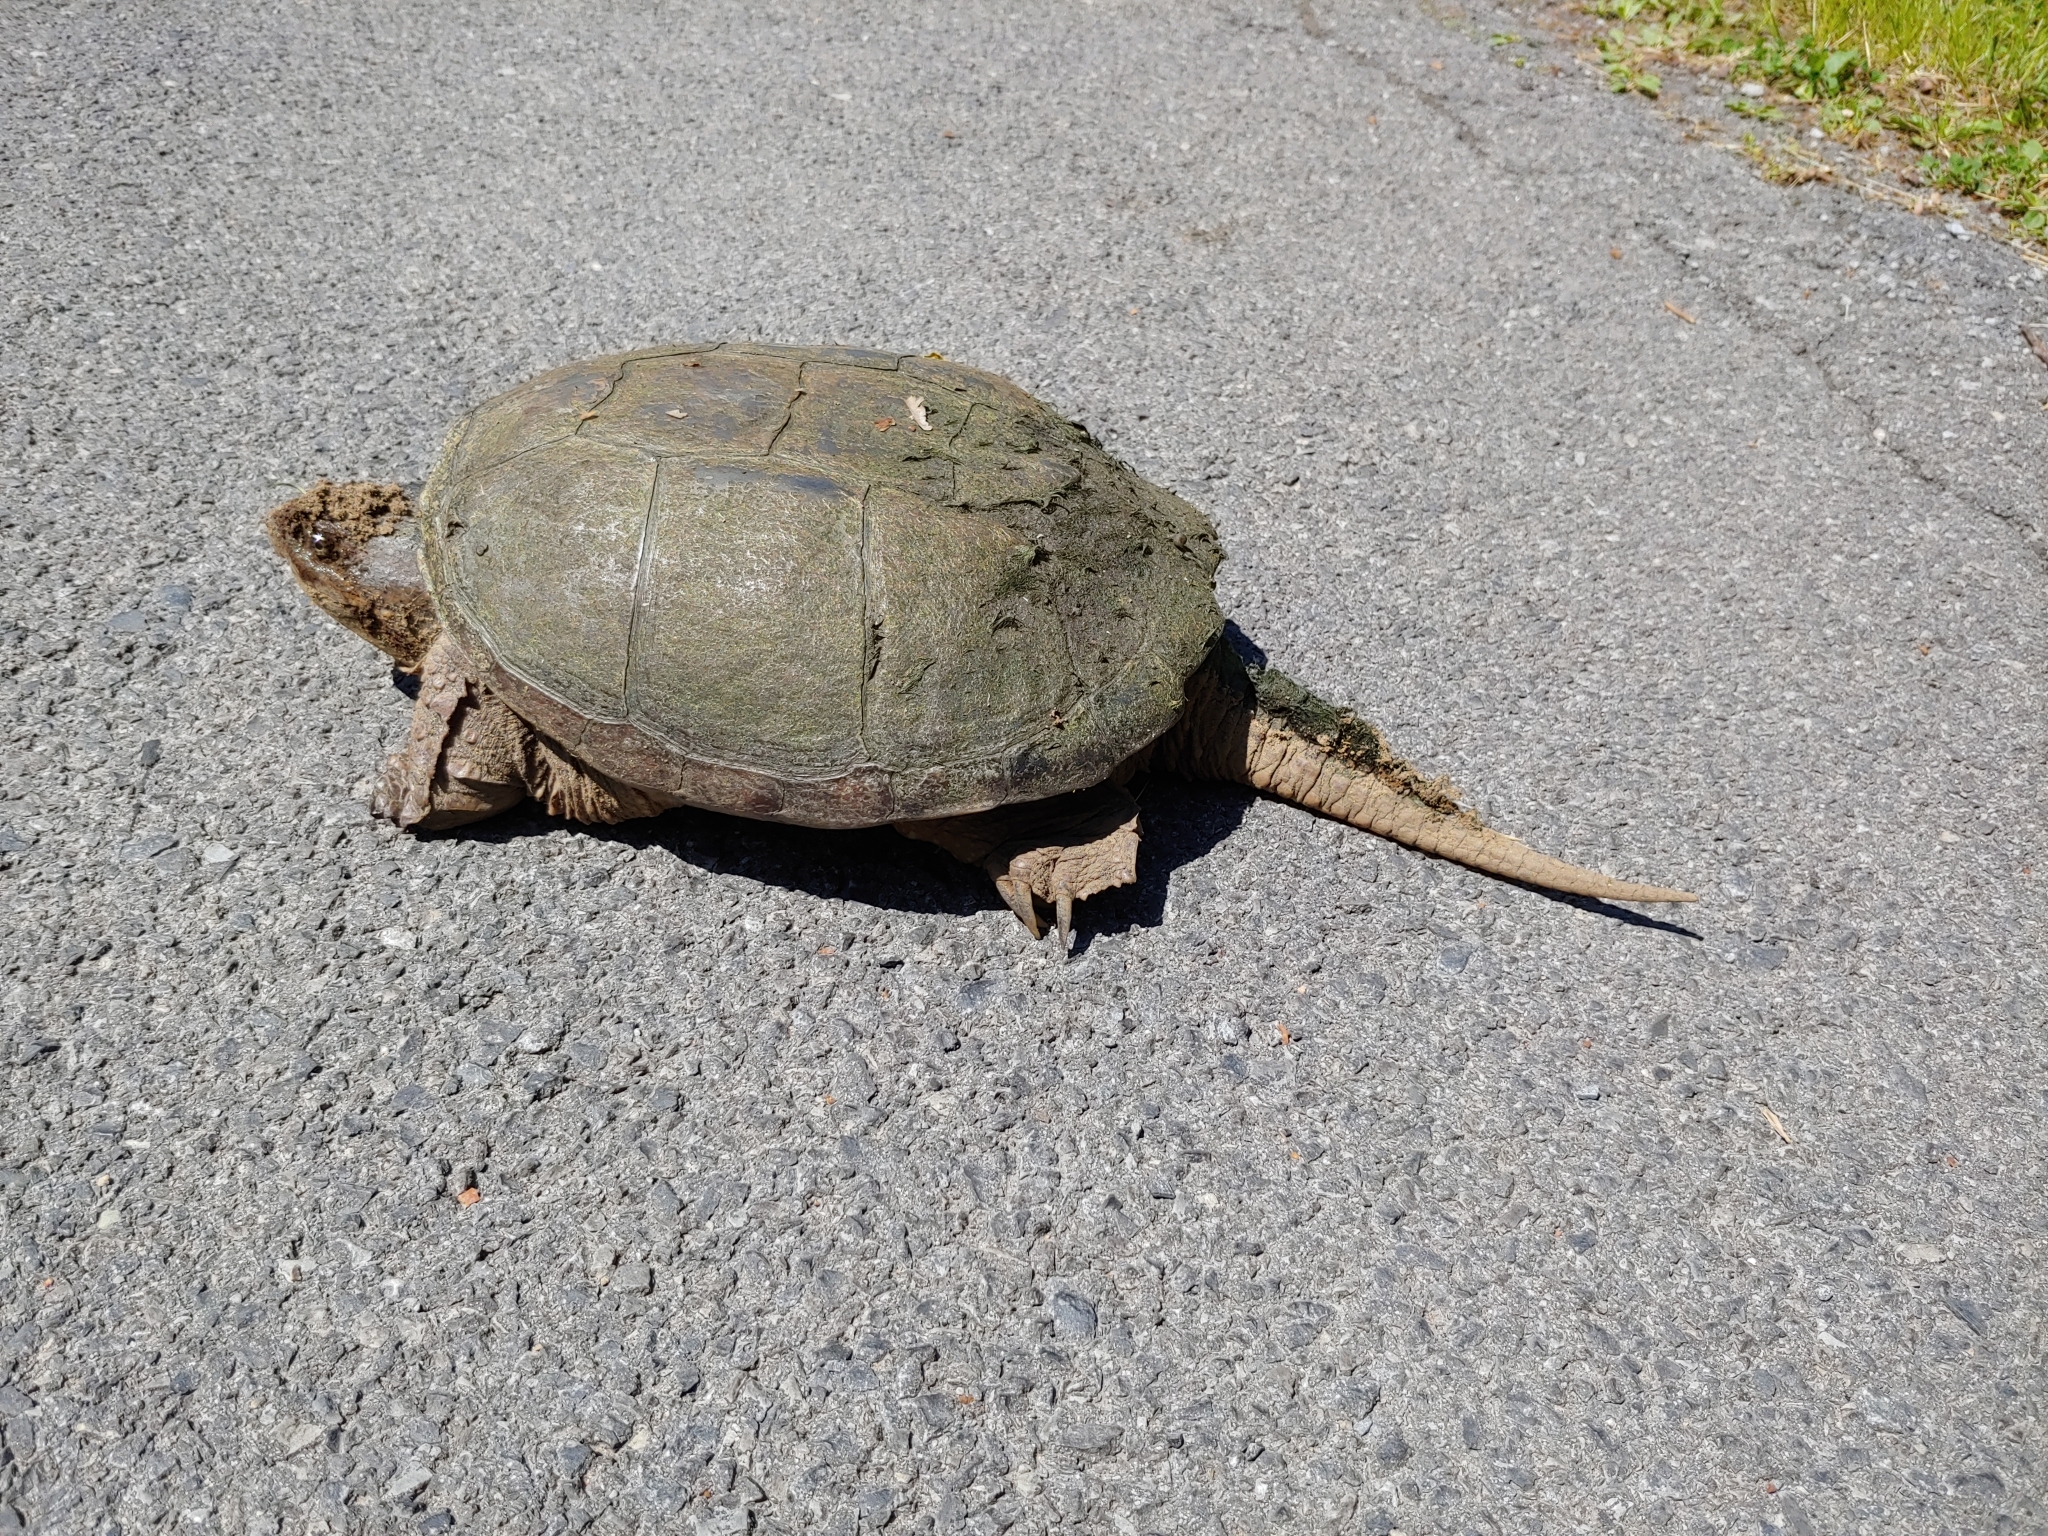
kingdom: Animalia
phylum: Chordata
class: Testudines
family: Chelydridae
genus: Chelydra
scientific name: Chelydra serpentina
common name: Common snapping turtle
